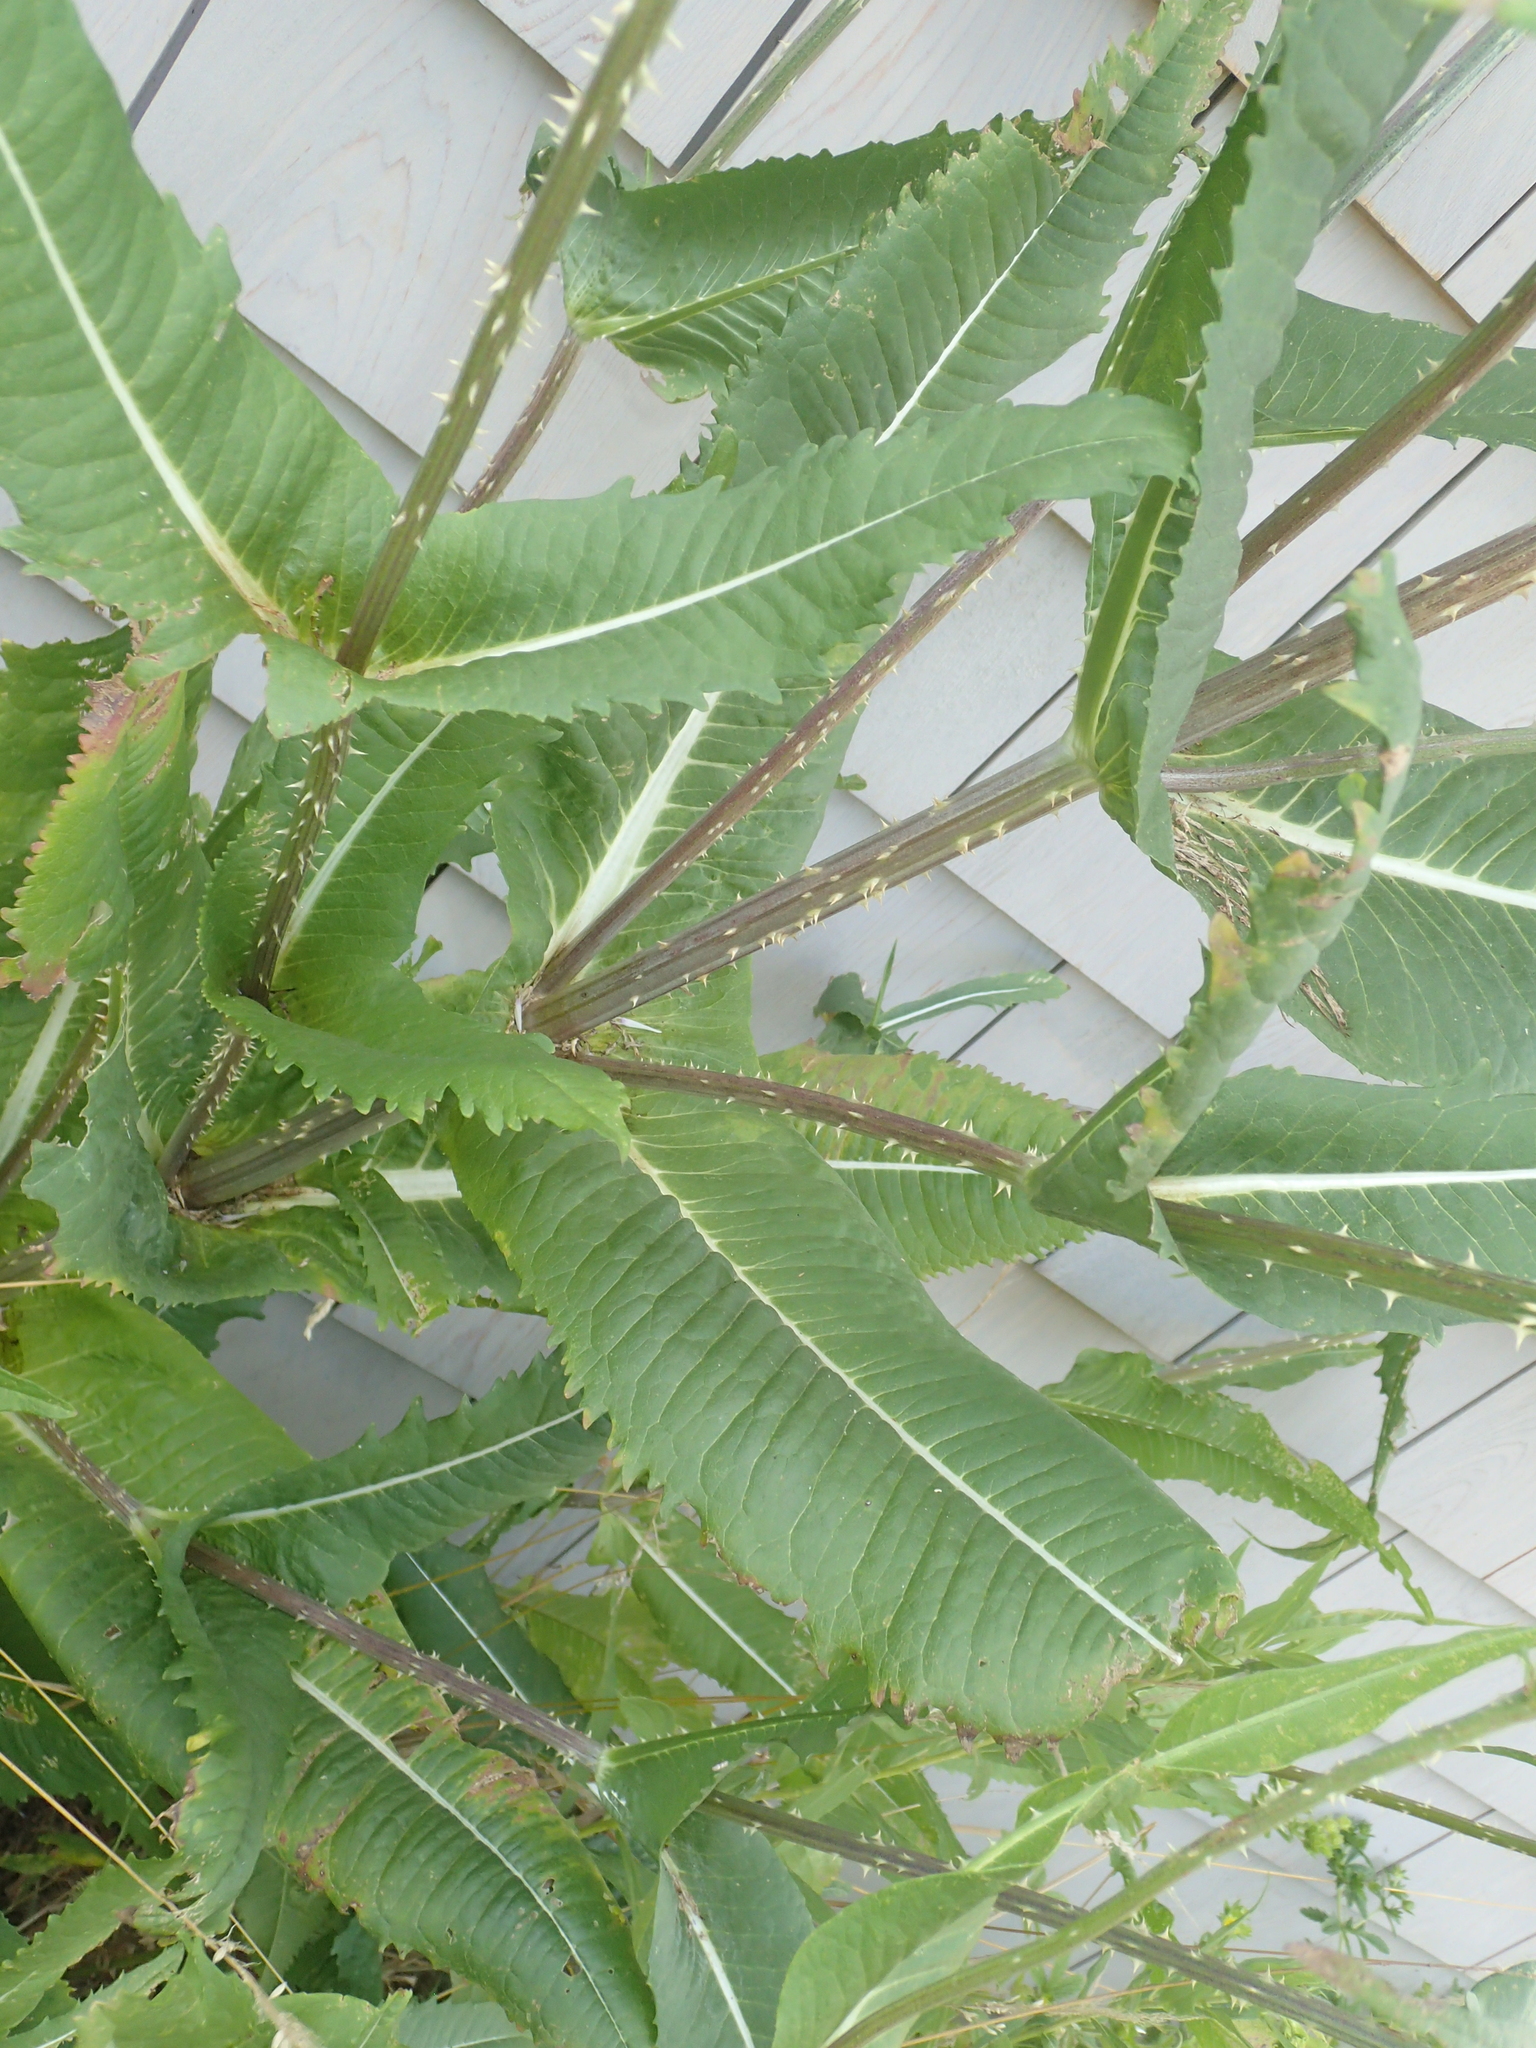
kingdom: Plantae
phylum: Tracheophyta
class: Magnoliopsida
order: Dipsacales
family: Caprifoliaceae
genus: Dipsacus
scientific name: Dipsacus fullonum
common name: Teasel
